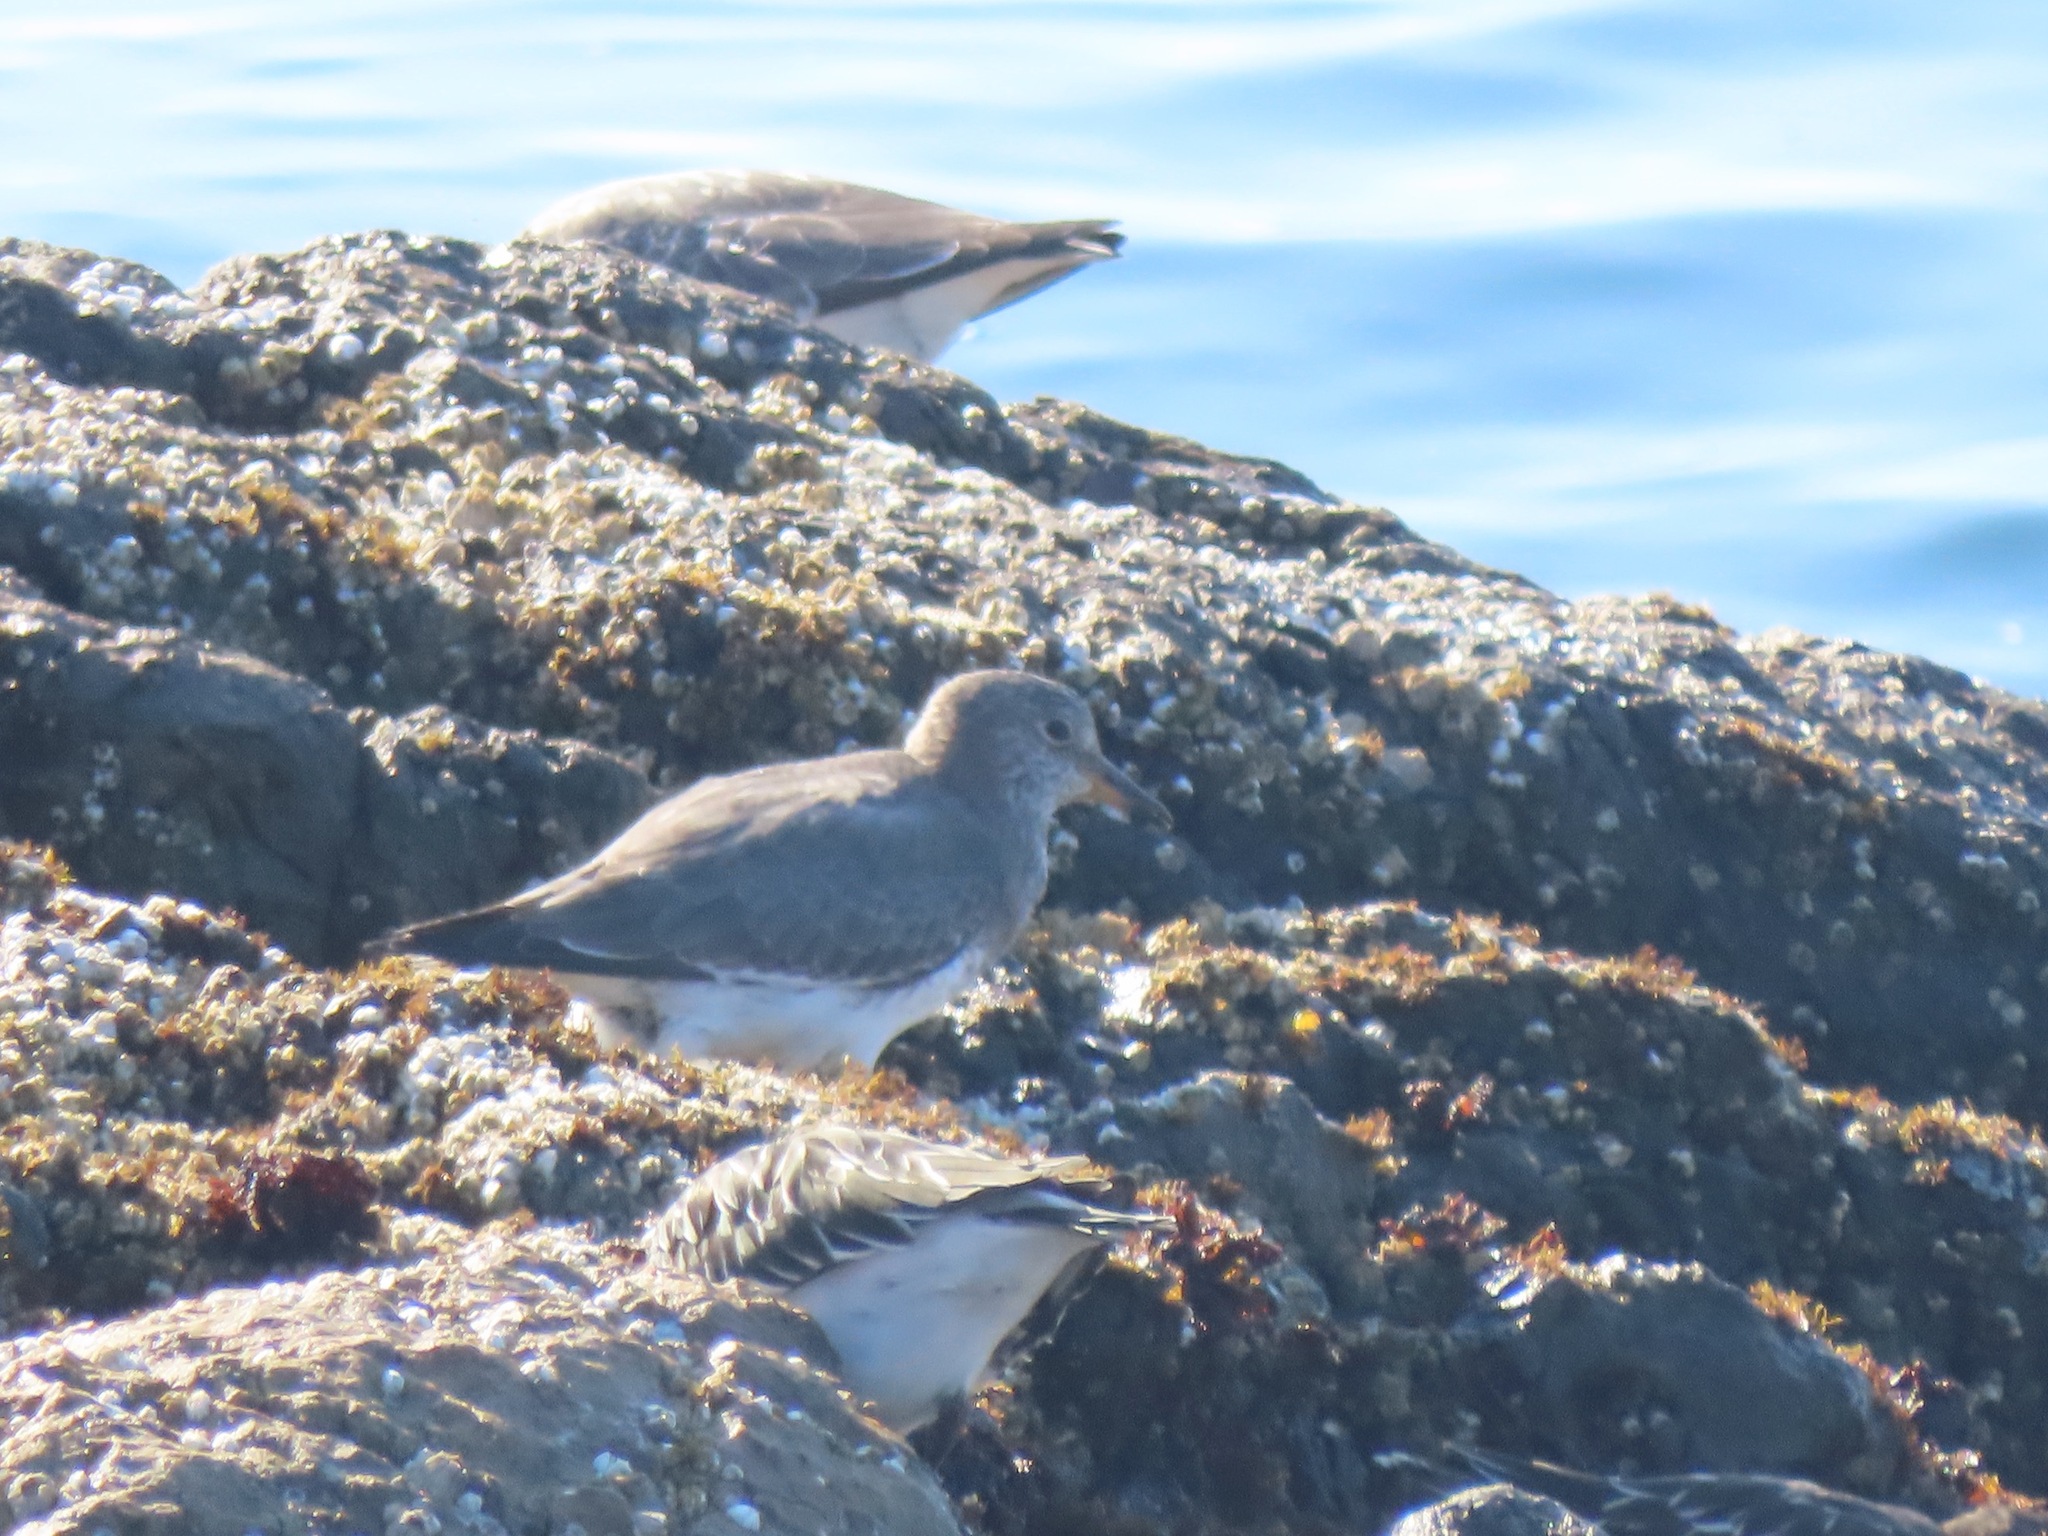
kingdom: Animalia
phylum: Chordata
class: Aves
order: Charadriiformes
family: Scolopacidae
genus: Calidris
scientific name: Calidris virgata
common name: Surfbird
